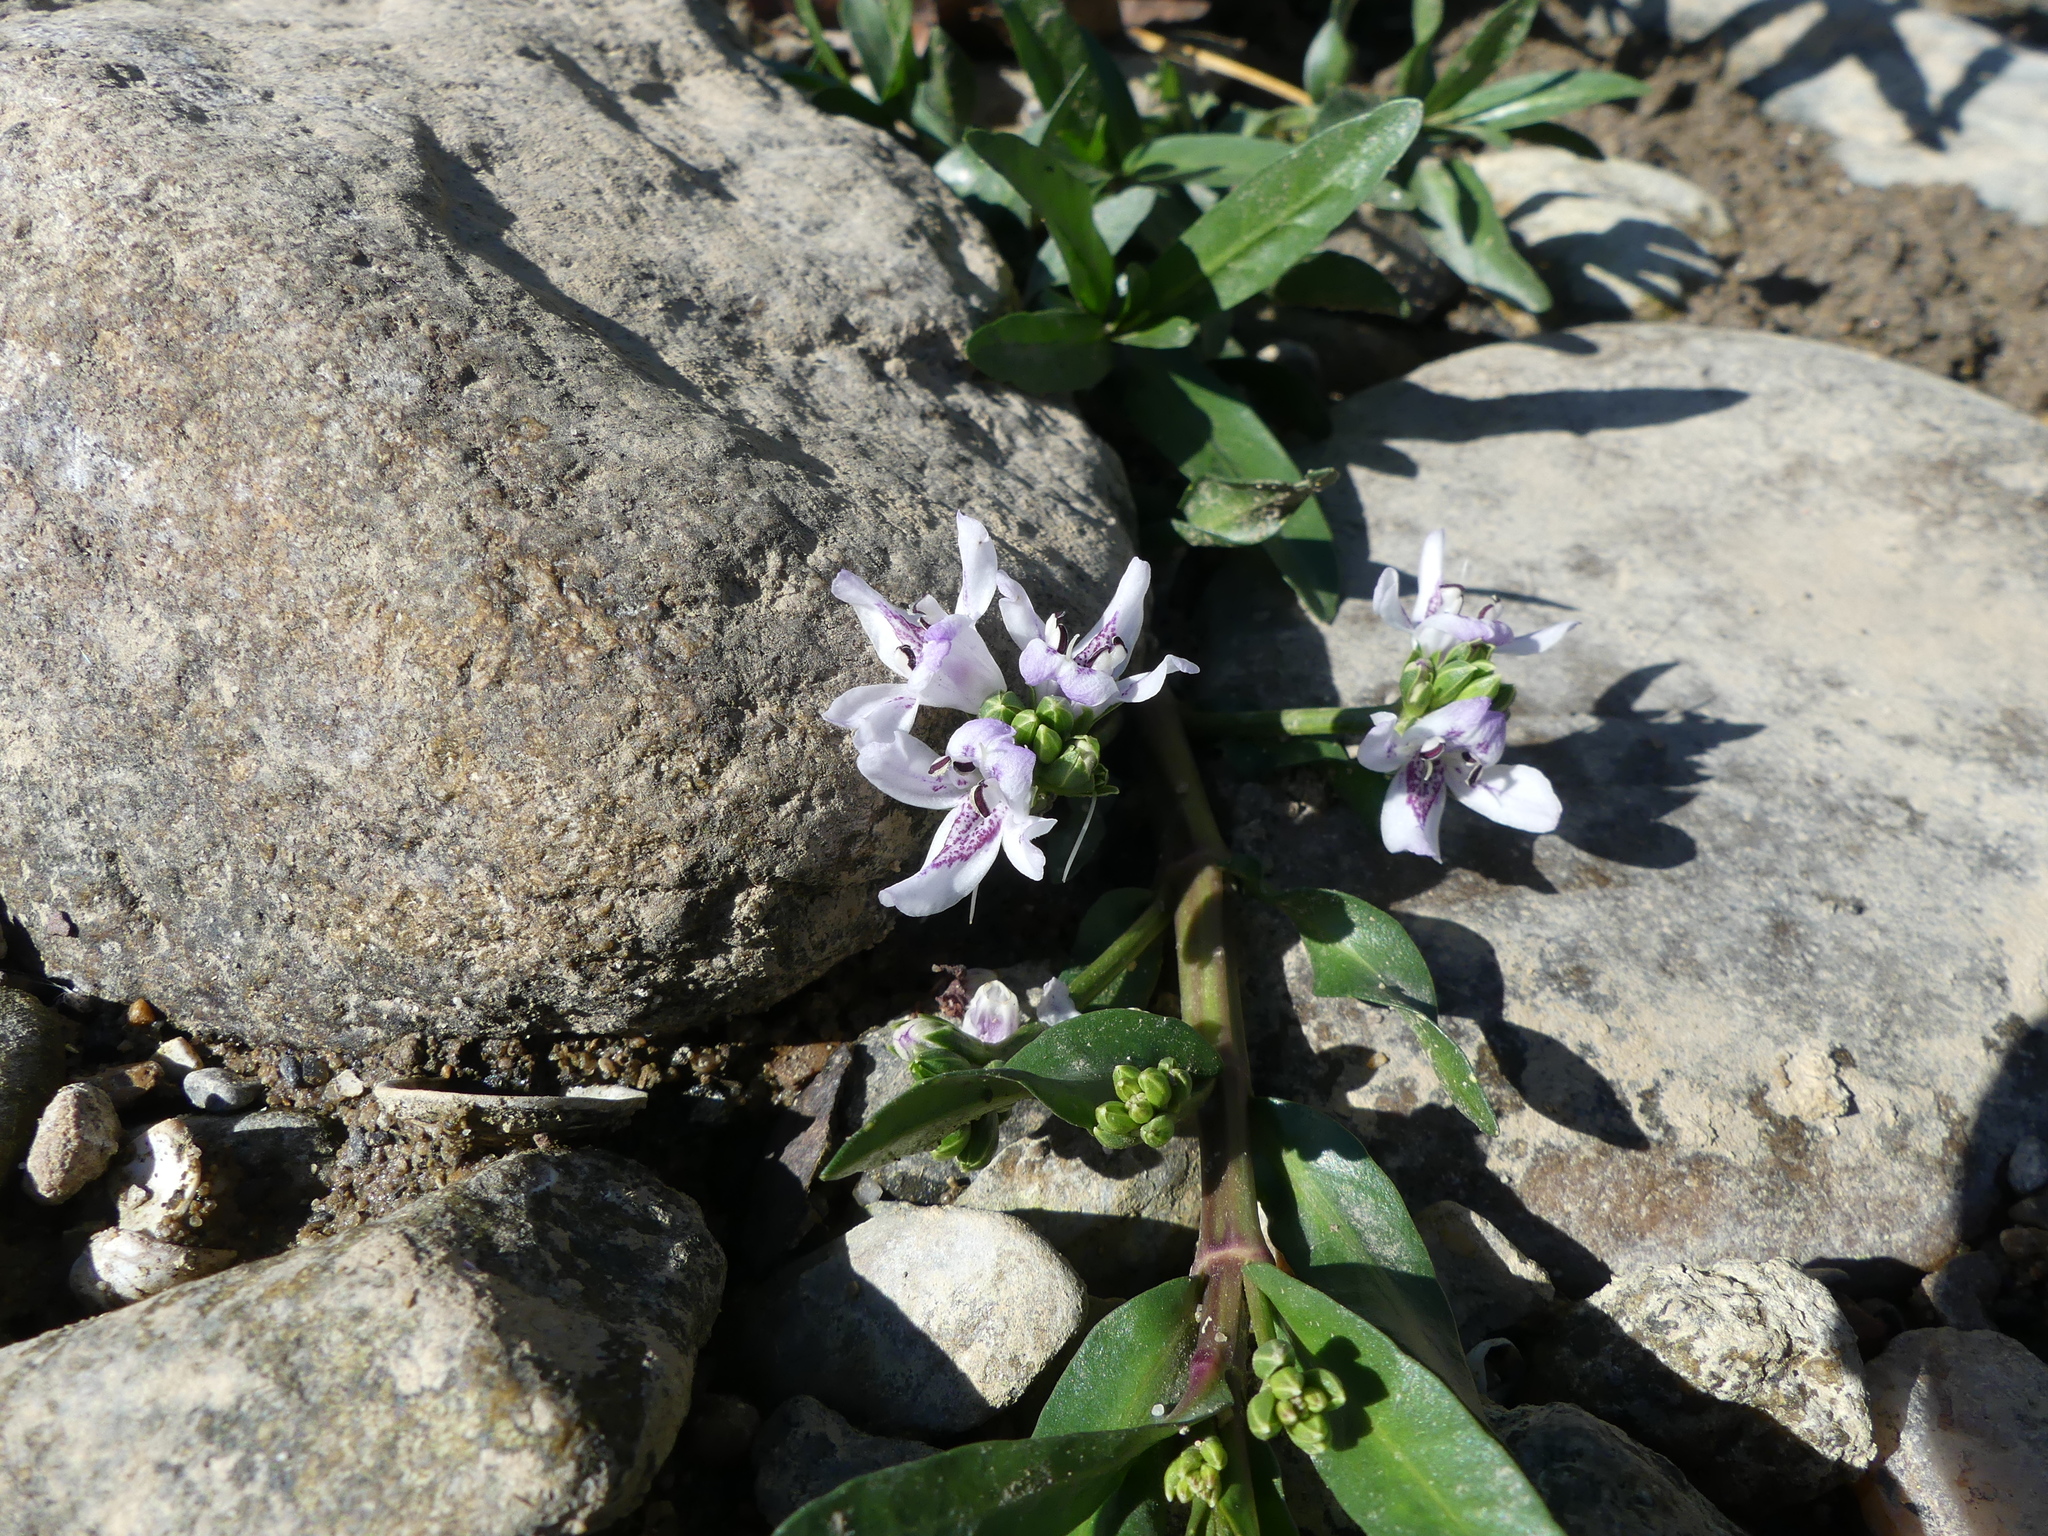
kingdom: Plantae
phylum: Tracheophyta
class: Magnoliopsida
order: Lamiales
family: Acanthaceae
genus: Dianthera
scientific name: Dianthera americana
